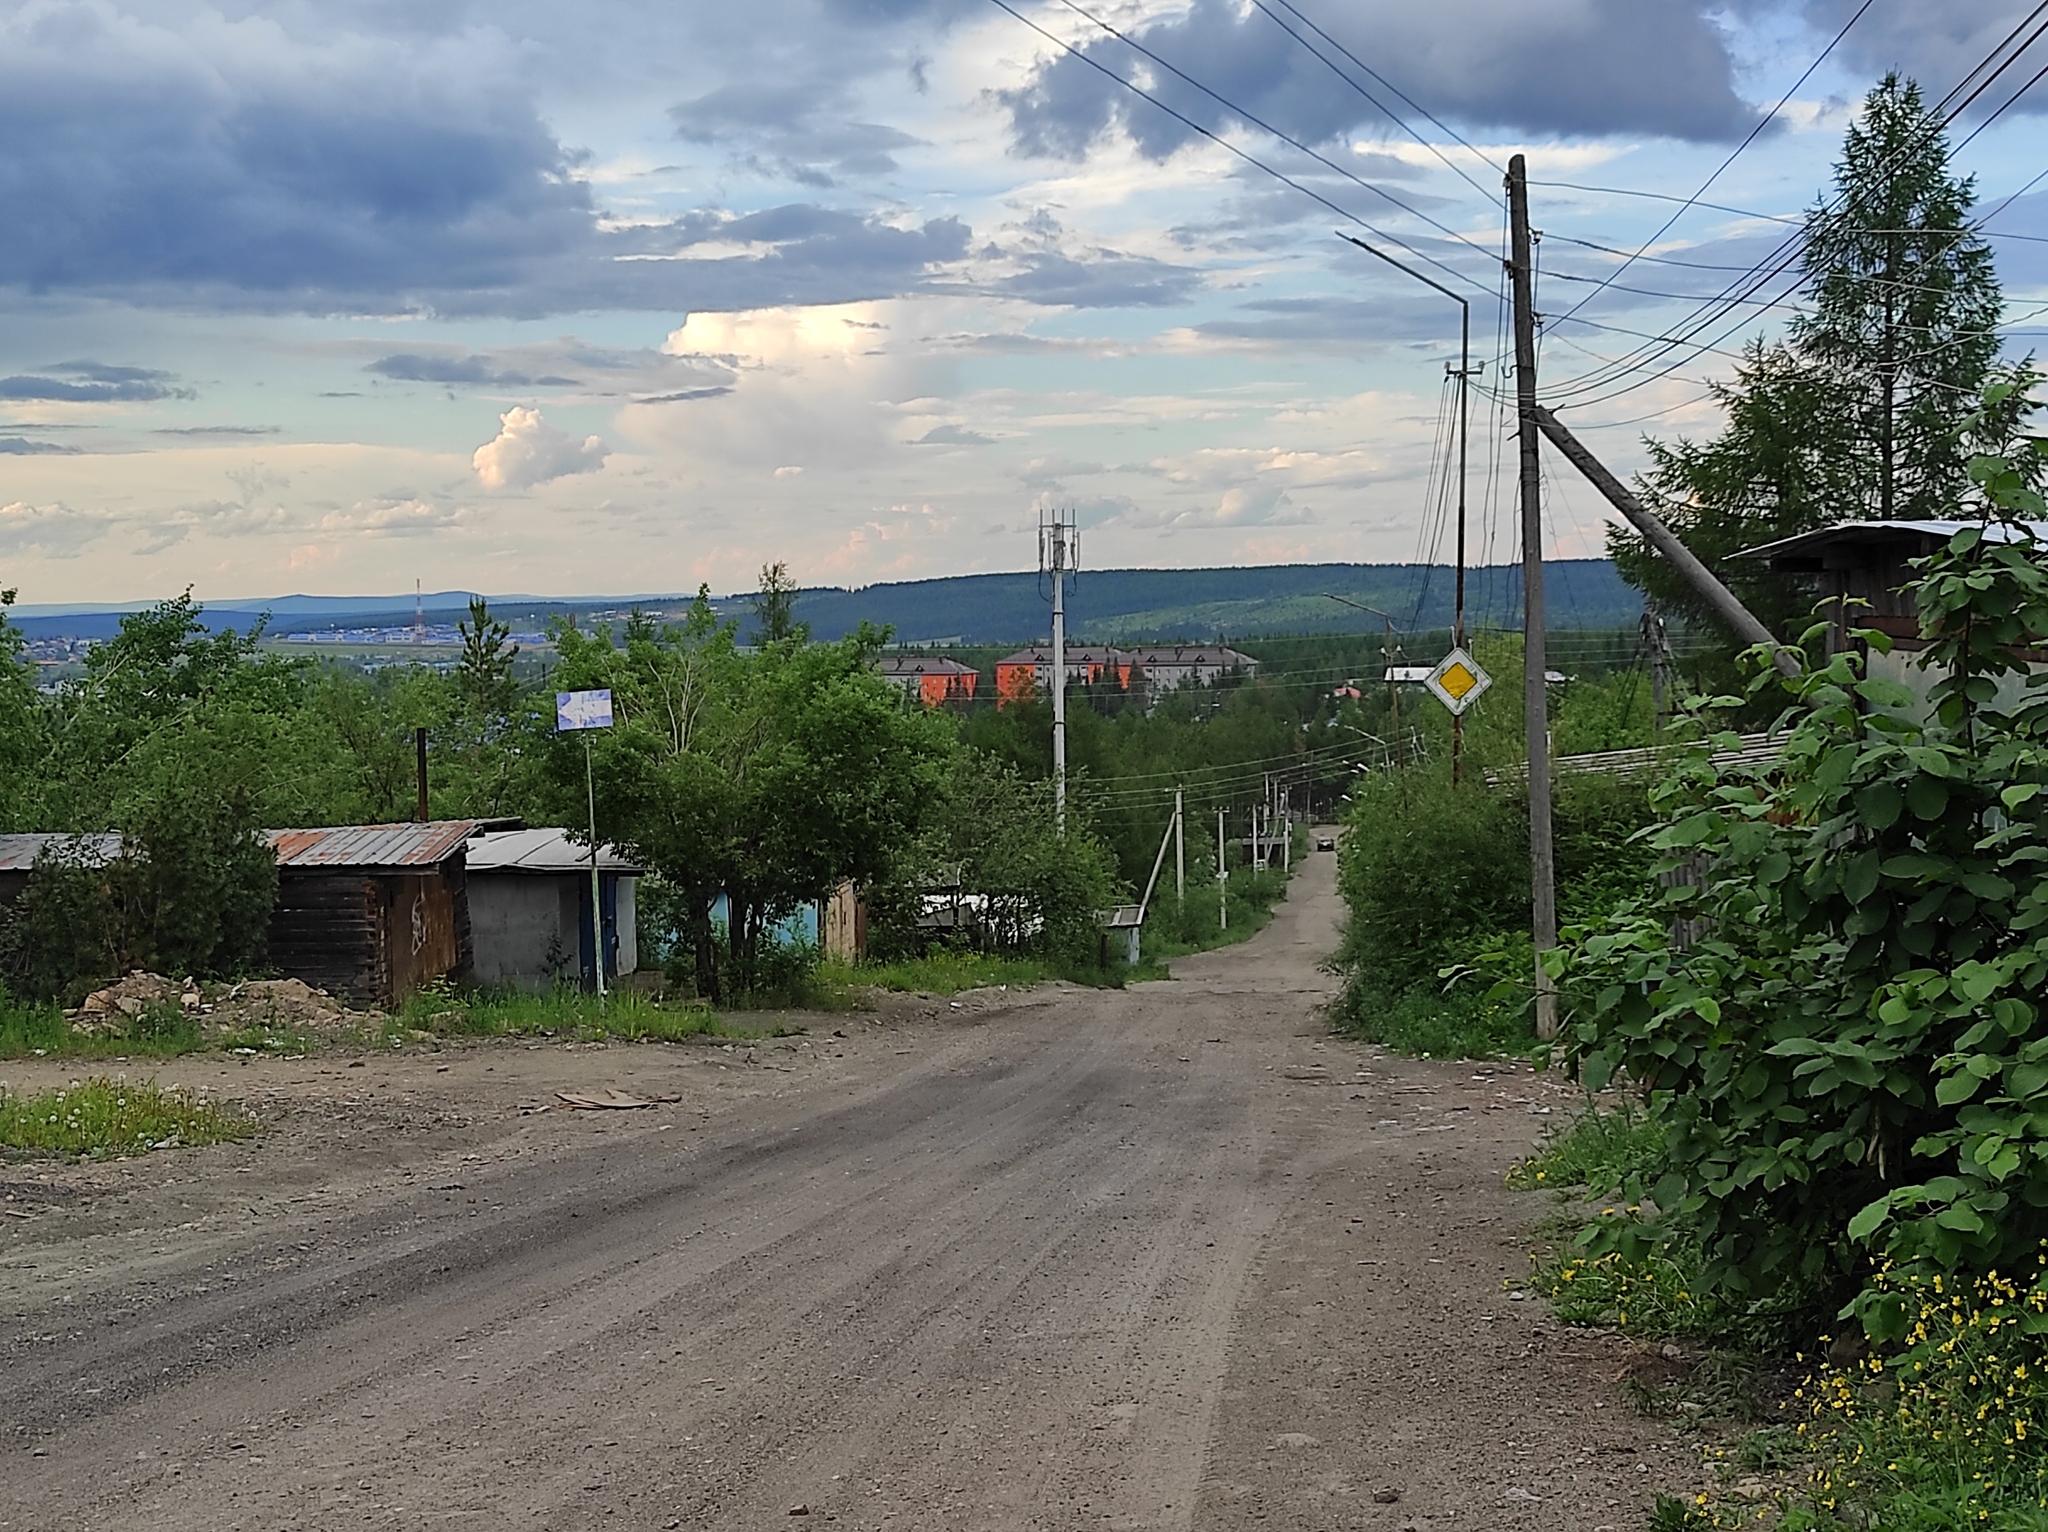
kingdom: Plantae
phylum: Tracheophyta
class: Pinopsida
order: Pinales
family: Pinaceae
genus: Larix
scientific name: Larix gmelinii
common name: Dahurian larch
